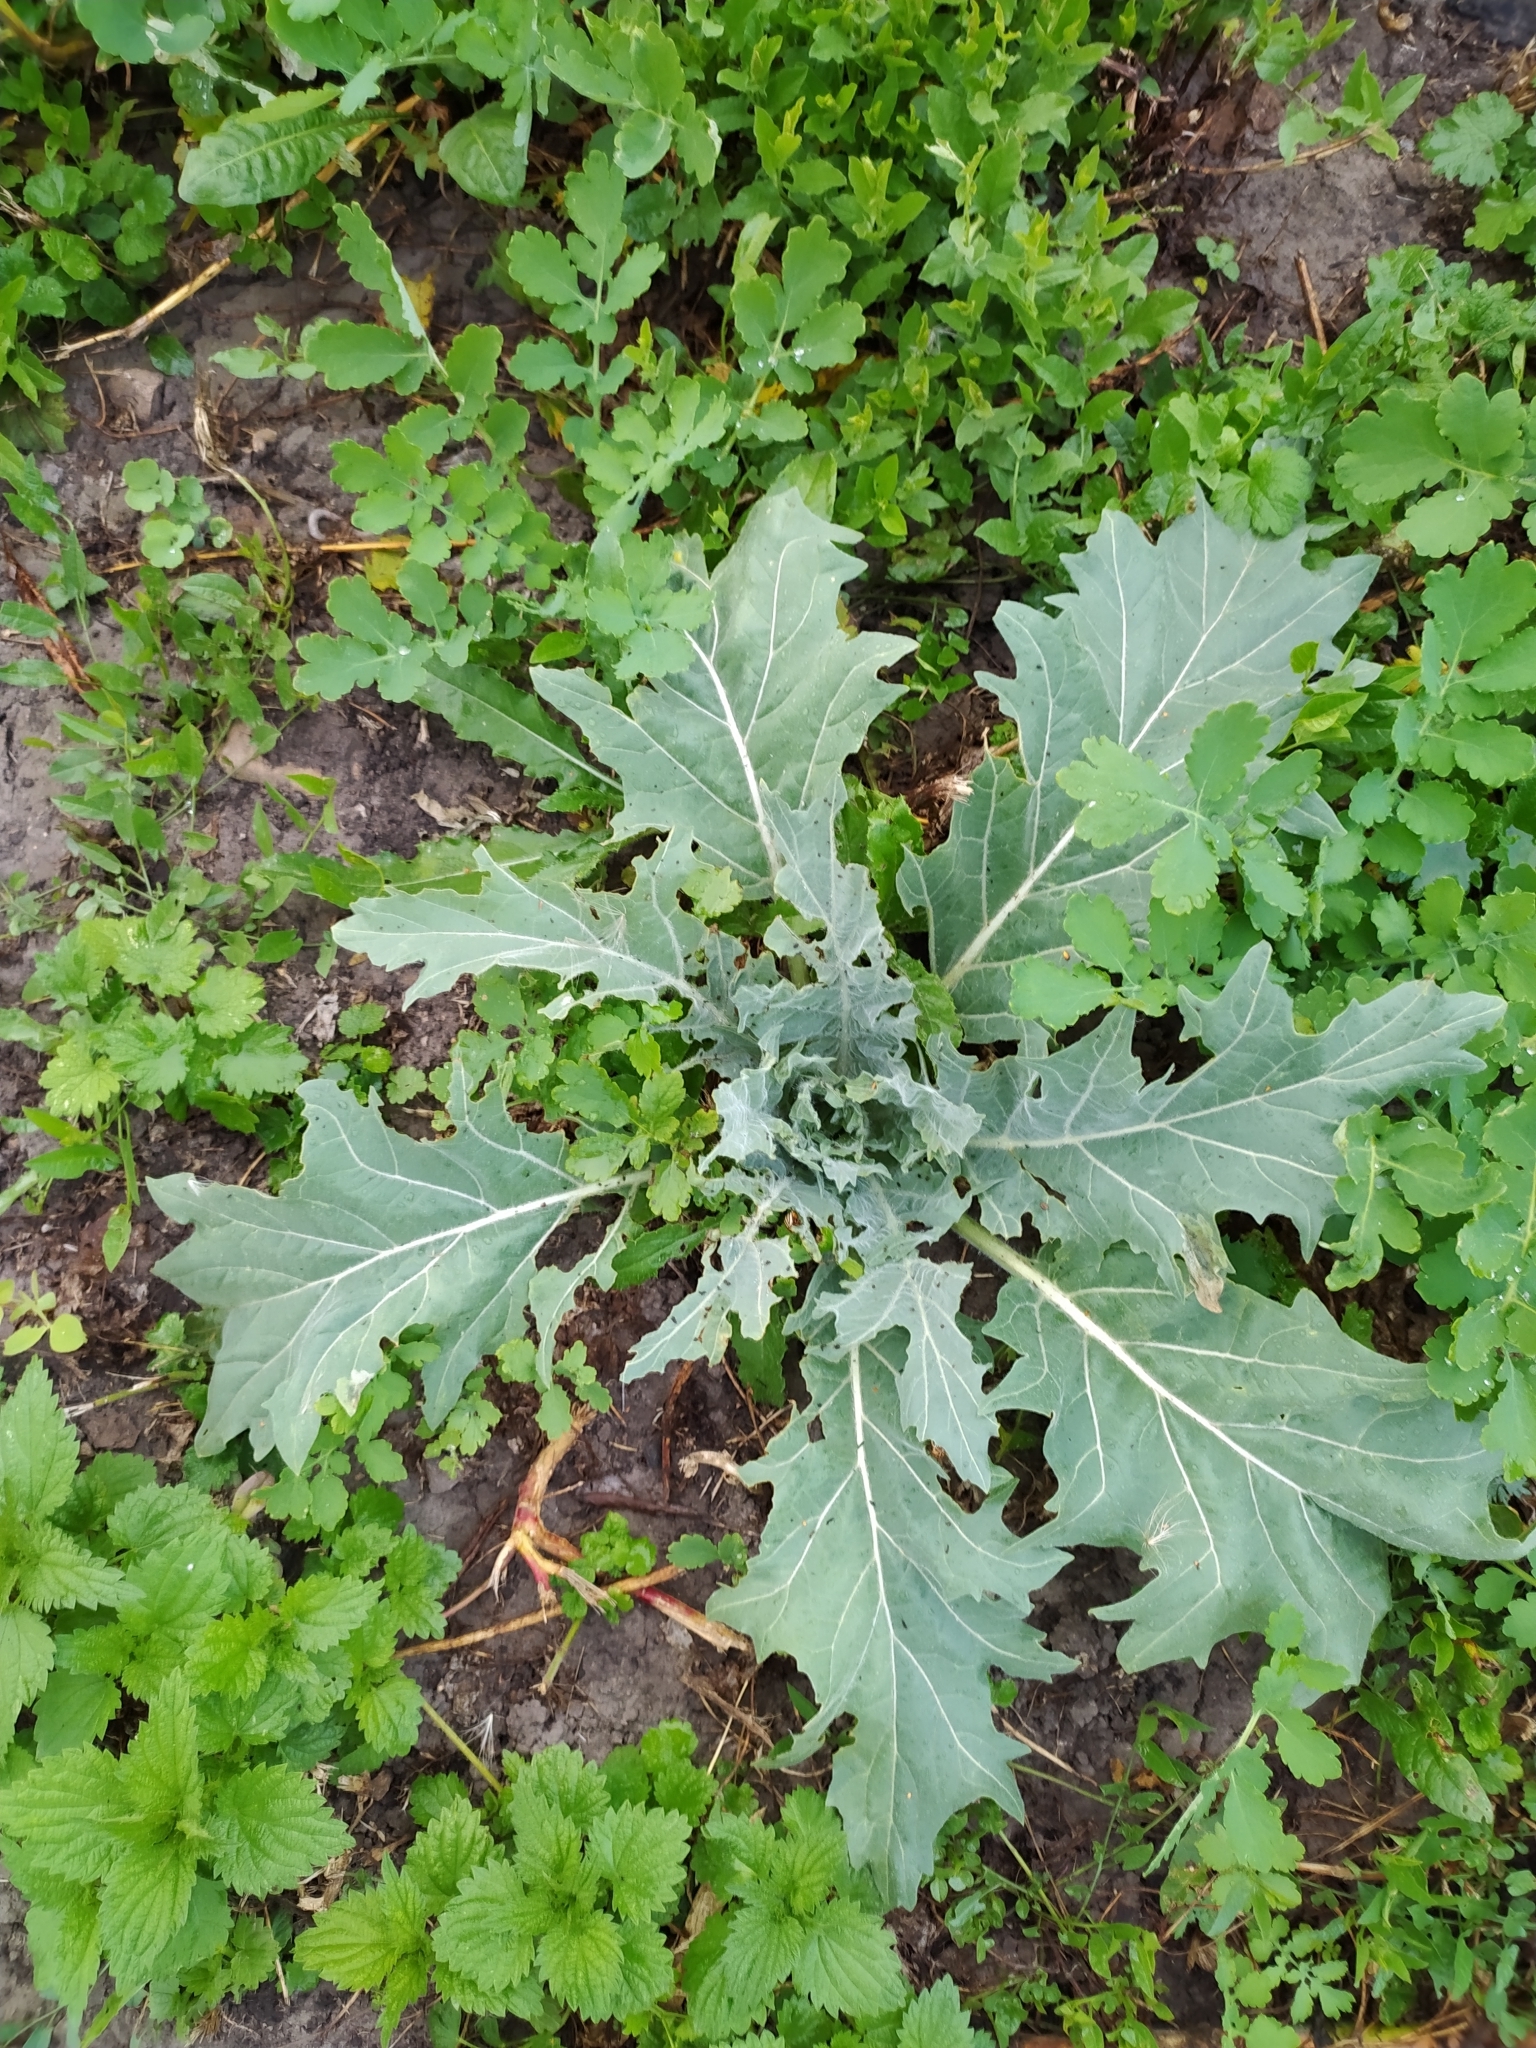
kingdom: Plantae
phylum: Tracheophyta
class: Magnoliopsida
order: Solanales
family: Solanaceae
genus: Hyoscyamus
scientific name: Hyoscyamus niger
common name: Henbane
